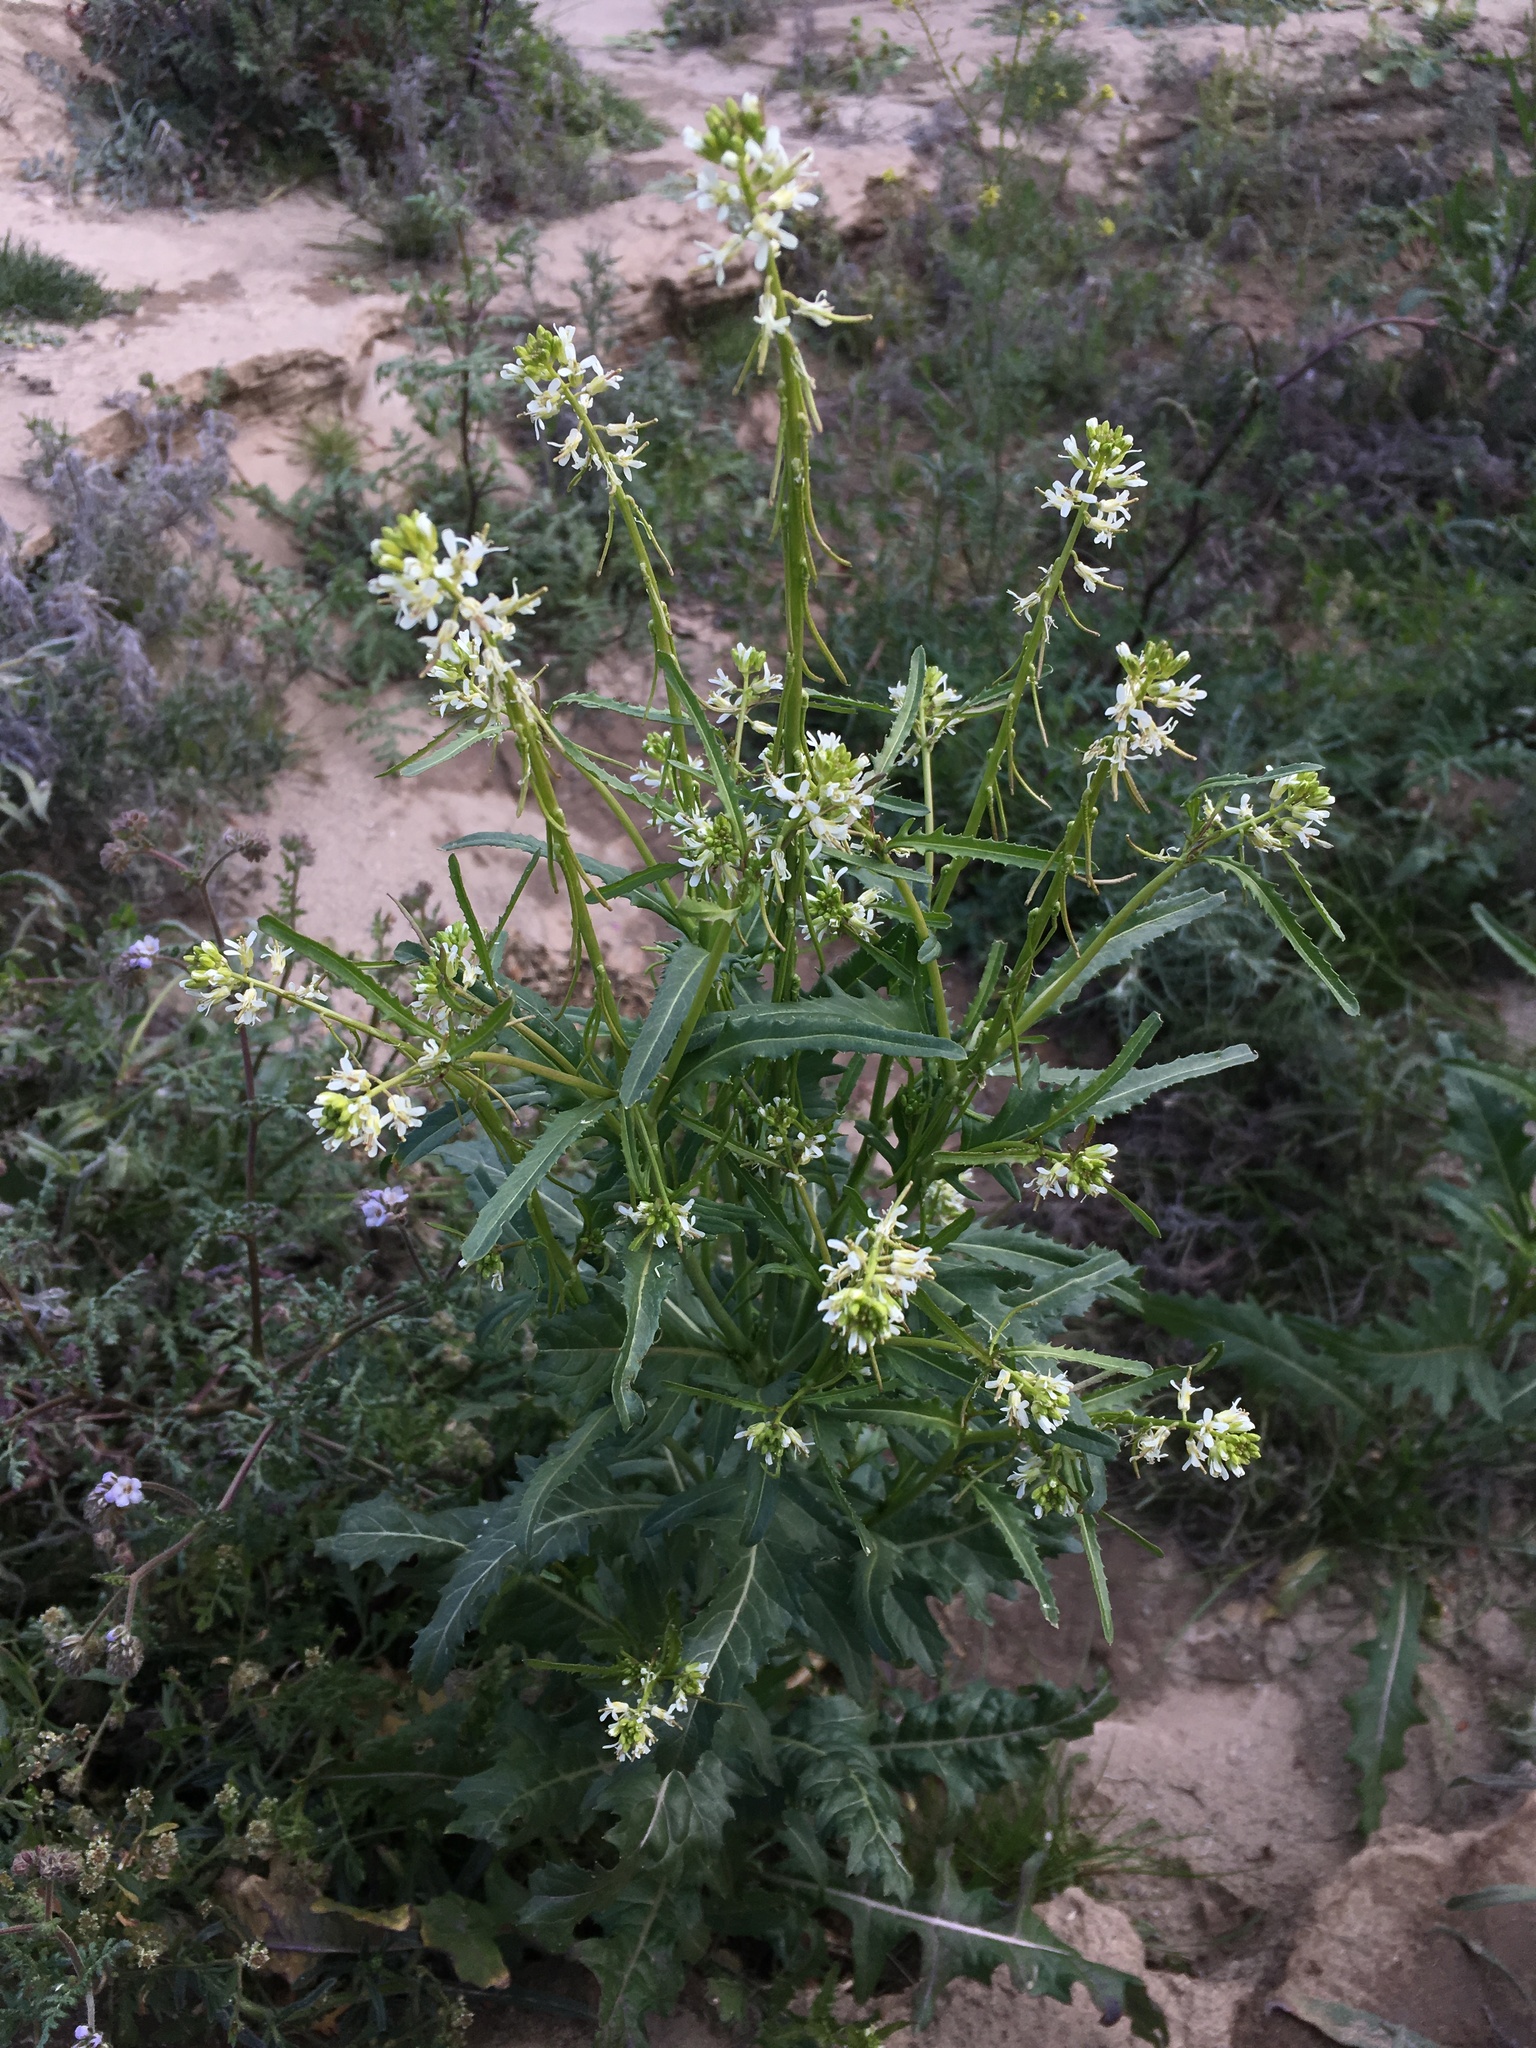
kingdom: Plantae
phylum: Tracheophyta
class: Magnoliopsida
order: Brassicales
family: Brassicaceae
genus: Streptanthus
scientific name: Streptanthus lasiophyllus
